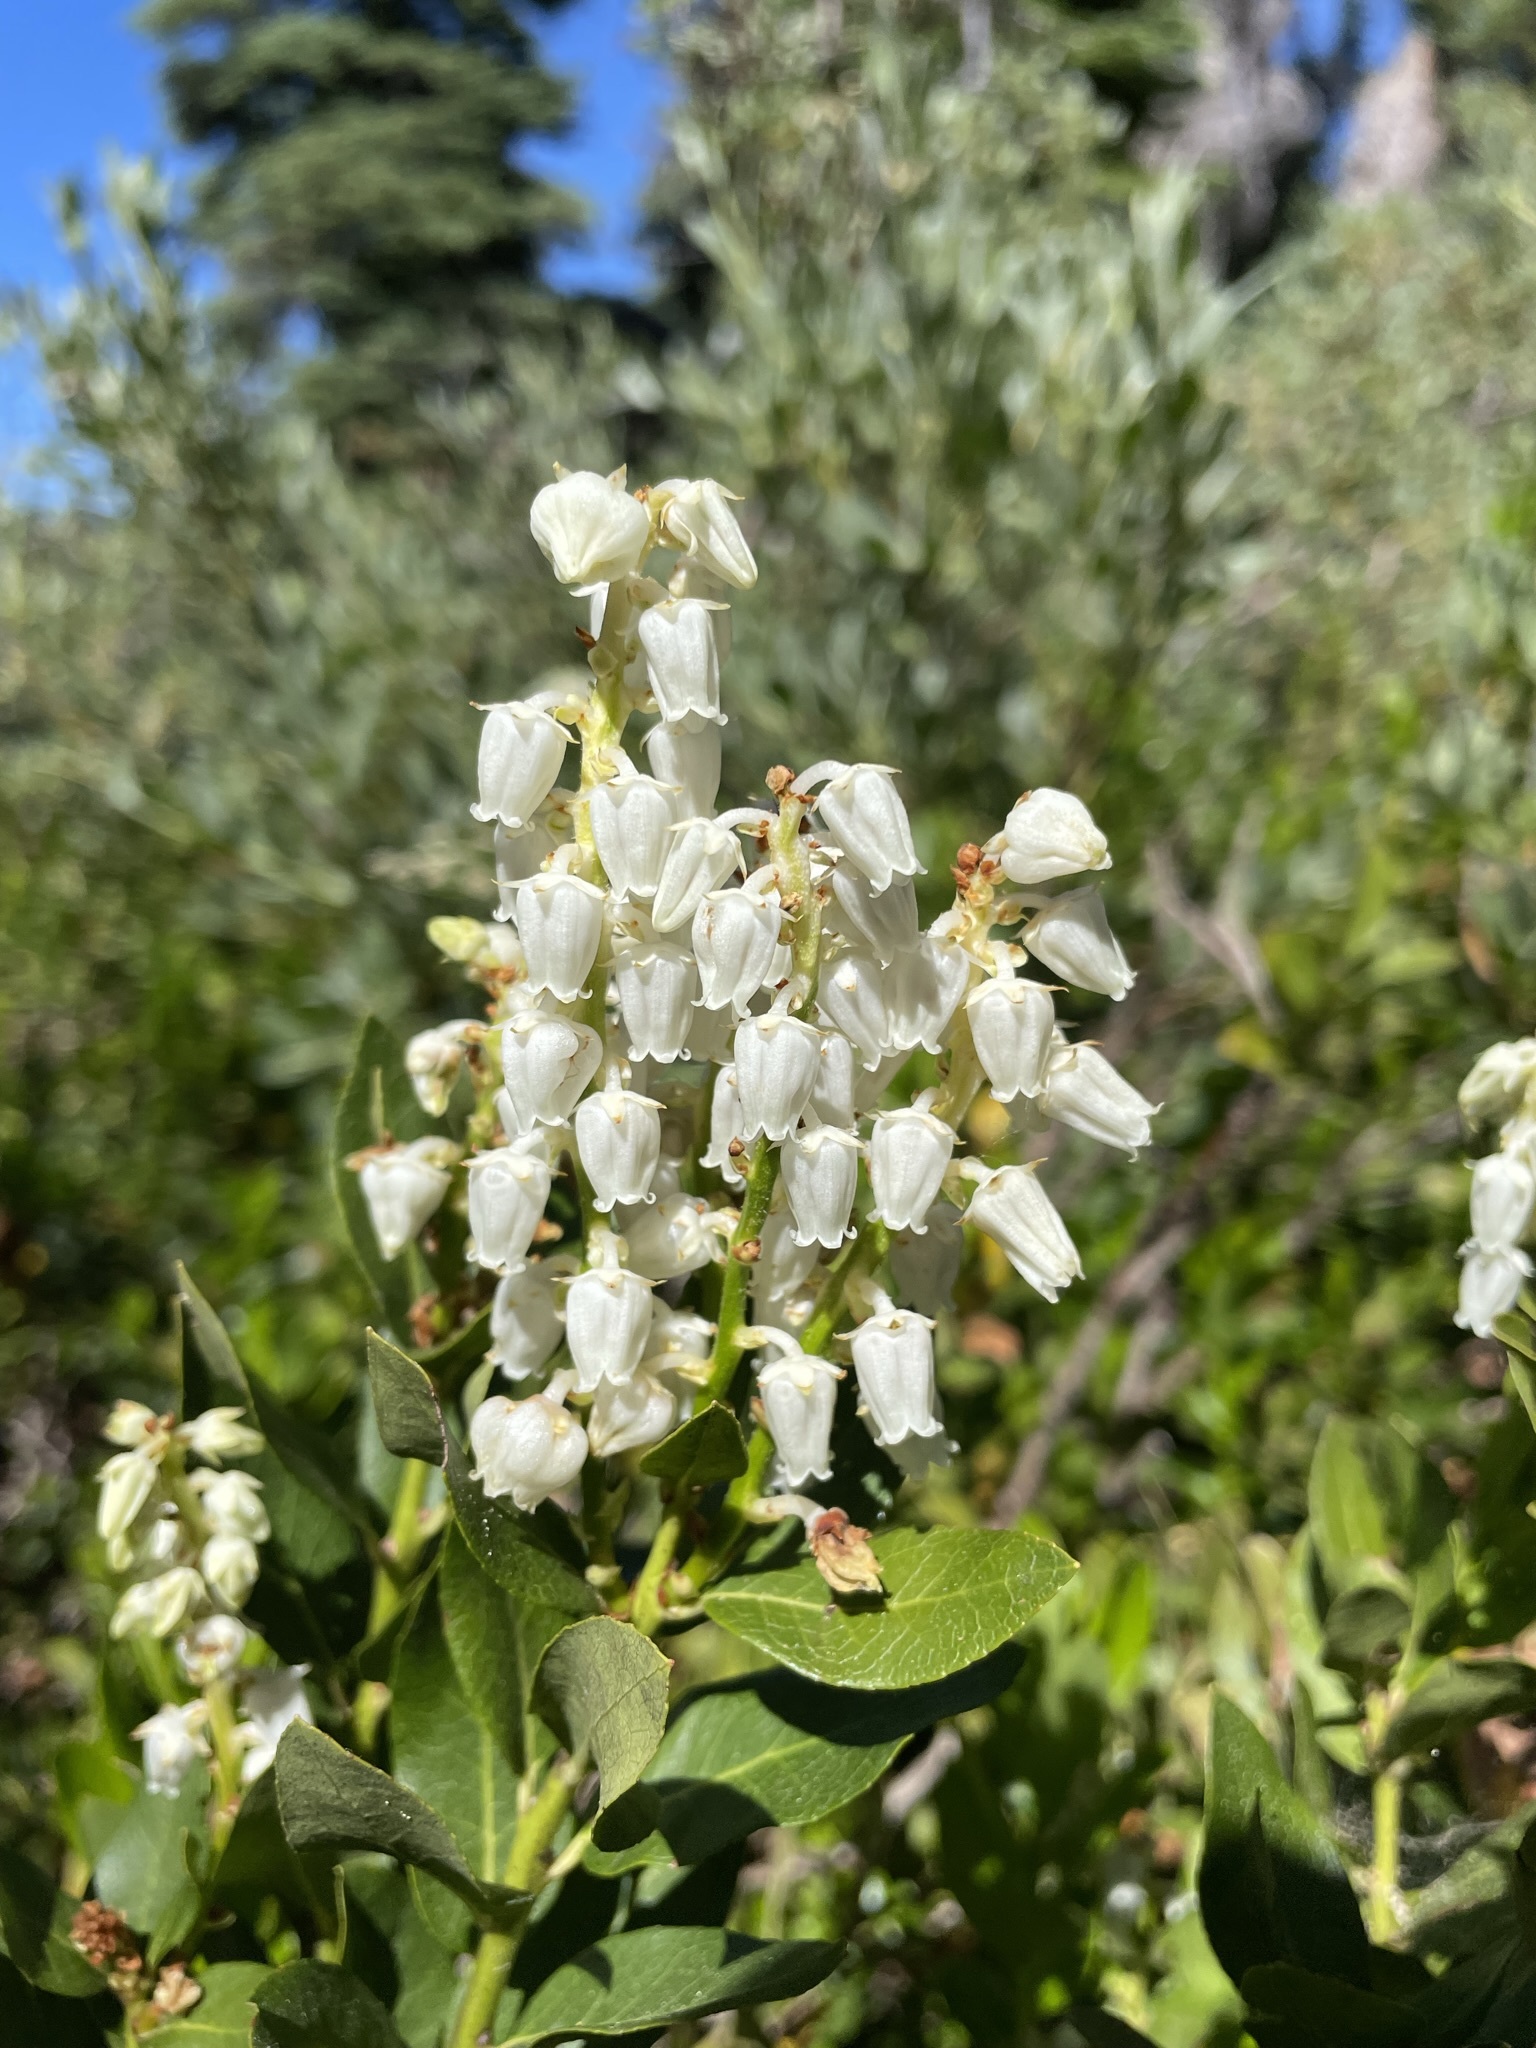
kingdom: Plantae
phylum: Tracheophyta
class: Magnoliopsida
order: Ericales
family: Ericaceae
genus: Leucothoe
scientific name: Leucothoe davisiae
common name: Sierra-laurel
